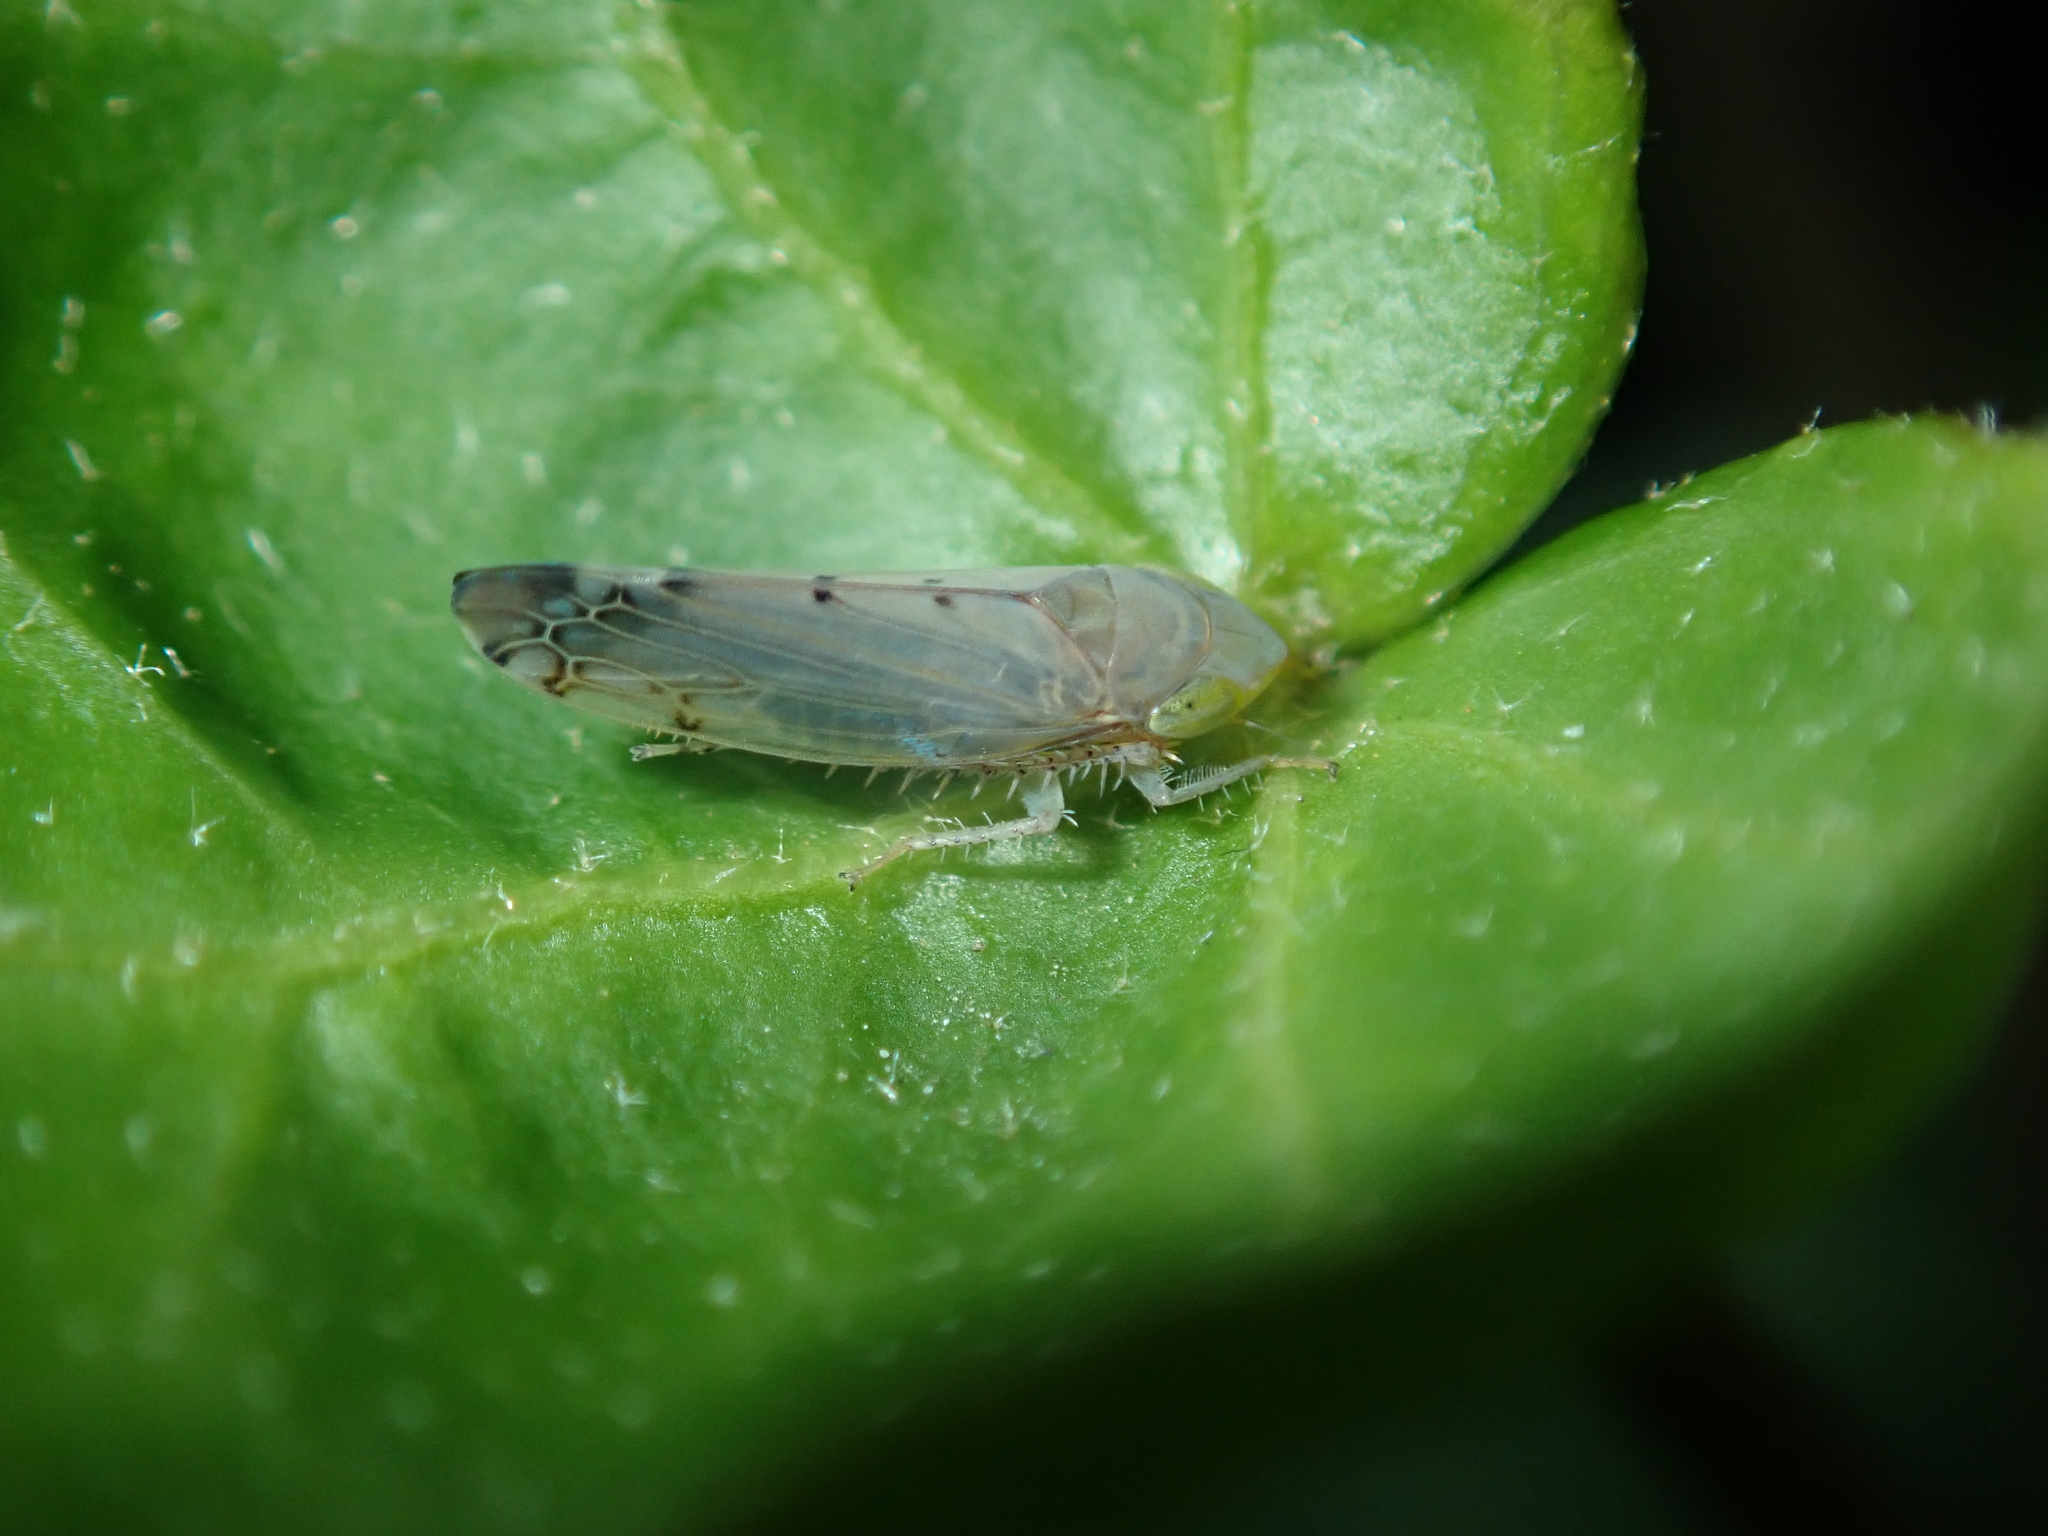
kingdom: Animalia
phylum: Arthropoda
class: Insecta
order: Hemiptera
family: Cicadellidae
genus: Synophropsis
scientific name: Synophropsis lauri
